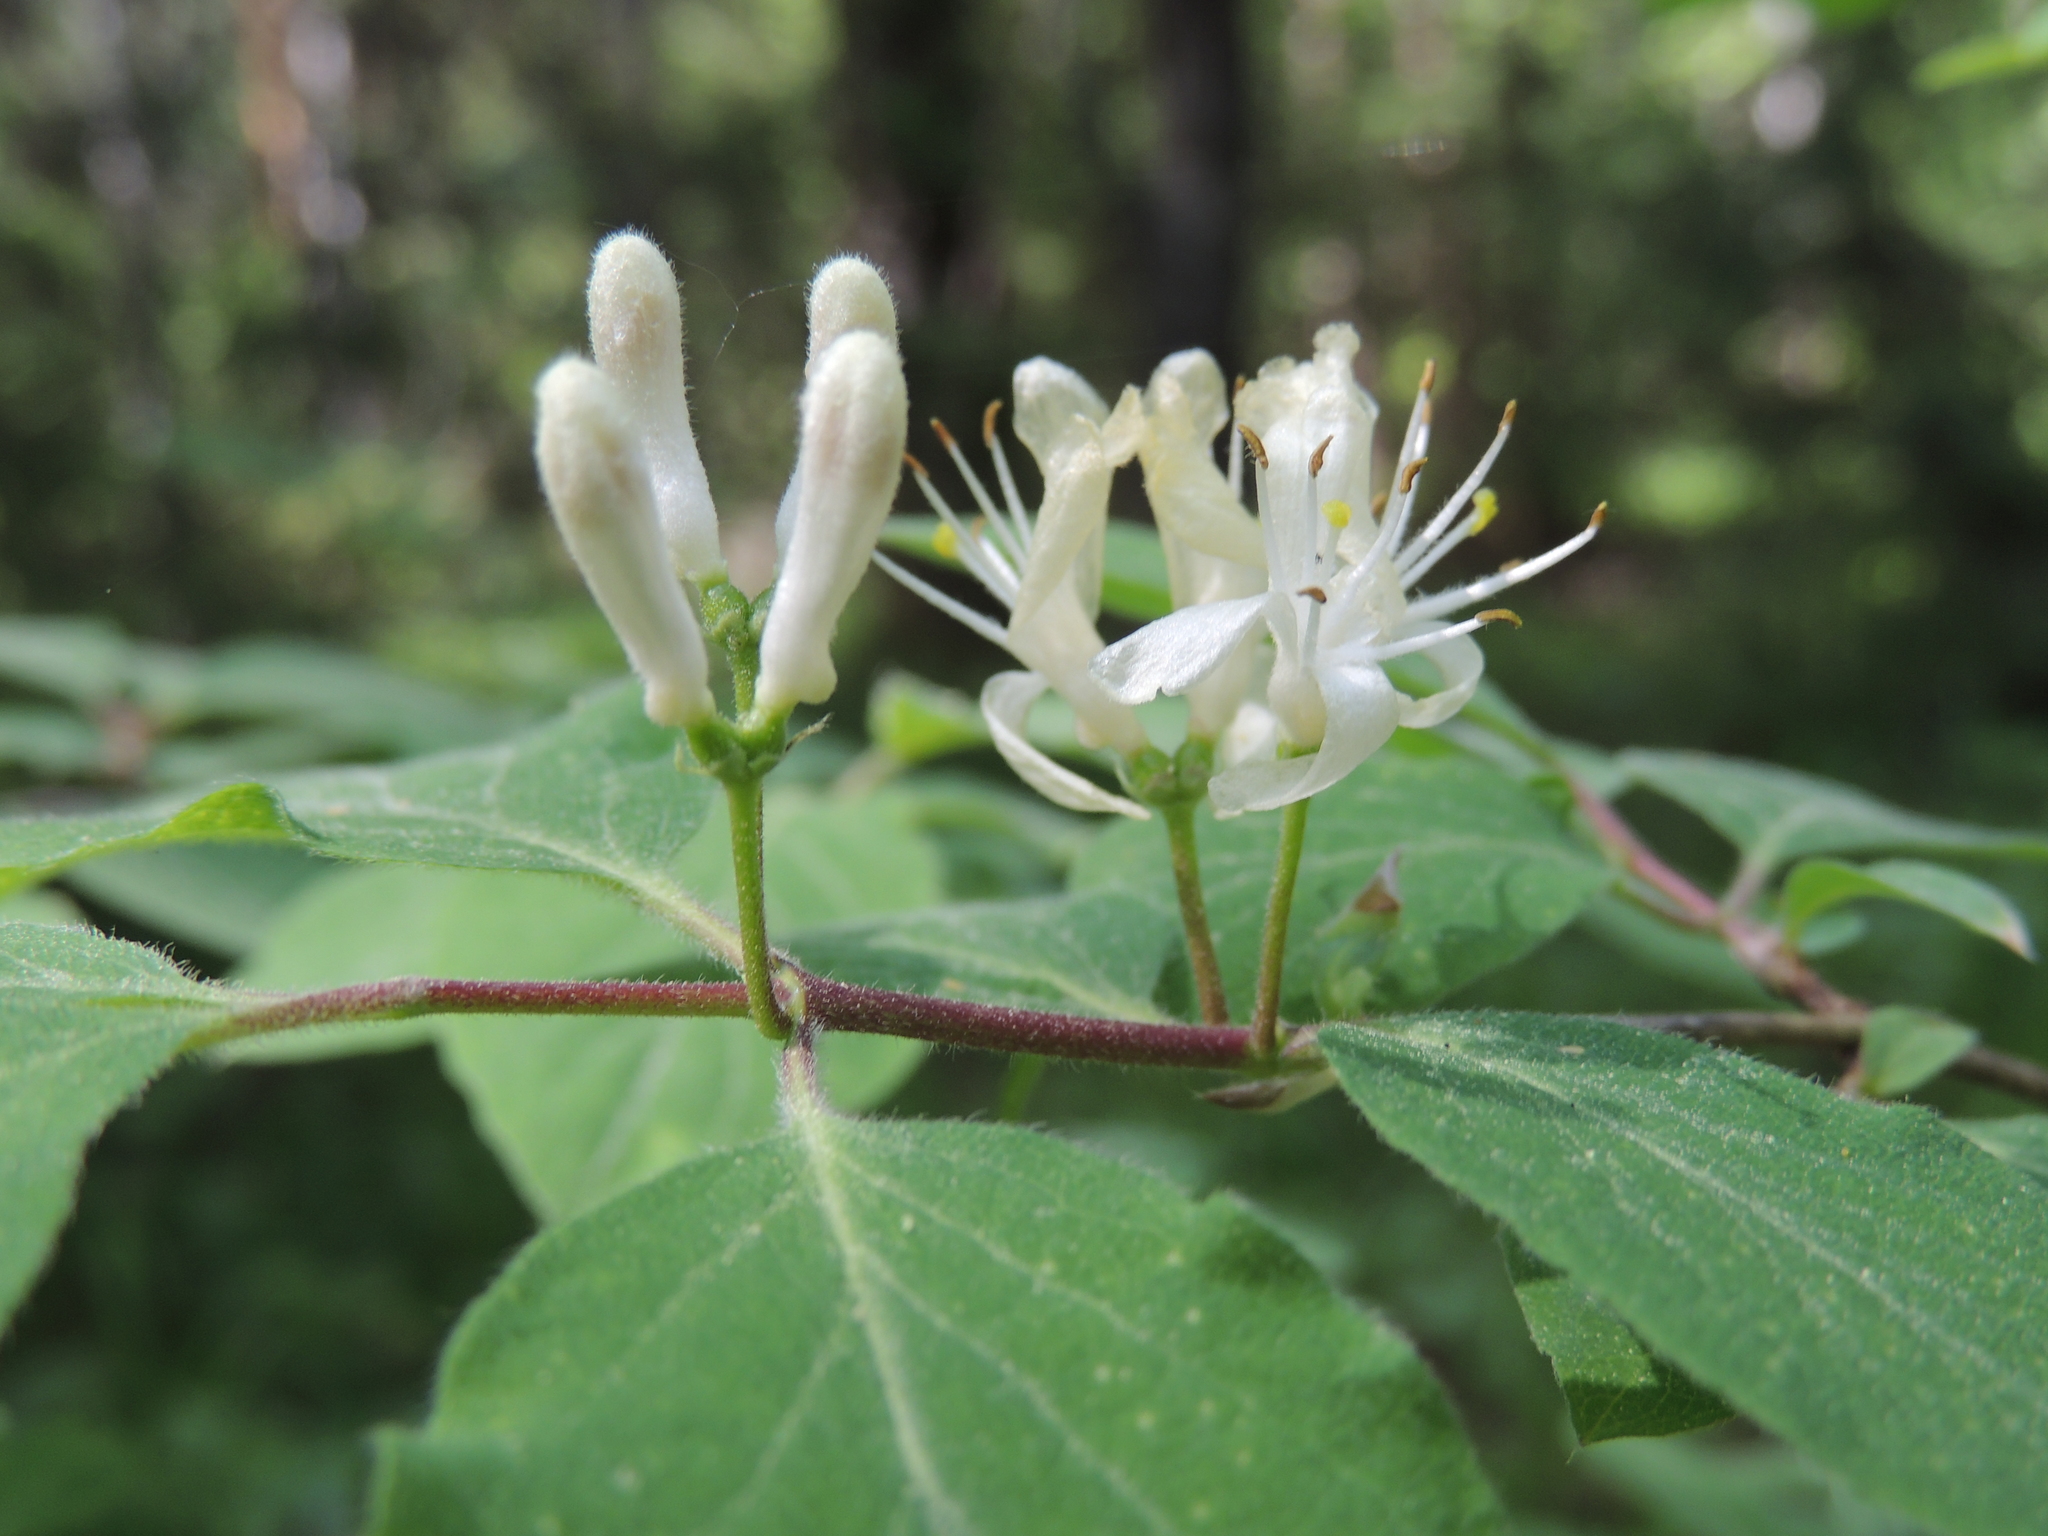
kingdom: Plantae
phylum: Tracheophyta
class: Magnoliopsida
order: Dipsacales
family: Caprifoliaceae
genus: Lonicera
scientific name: Lonicera xylosteum
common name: Fly honeysuckle
